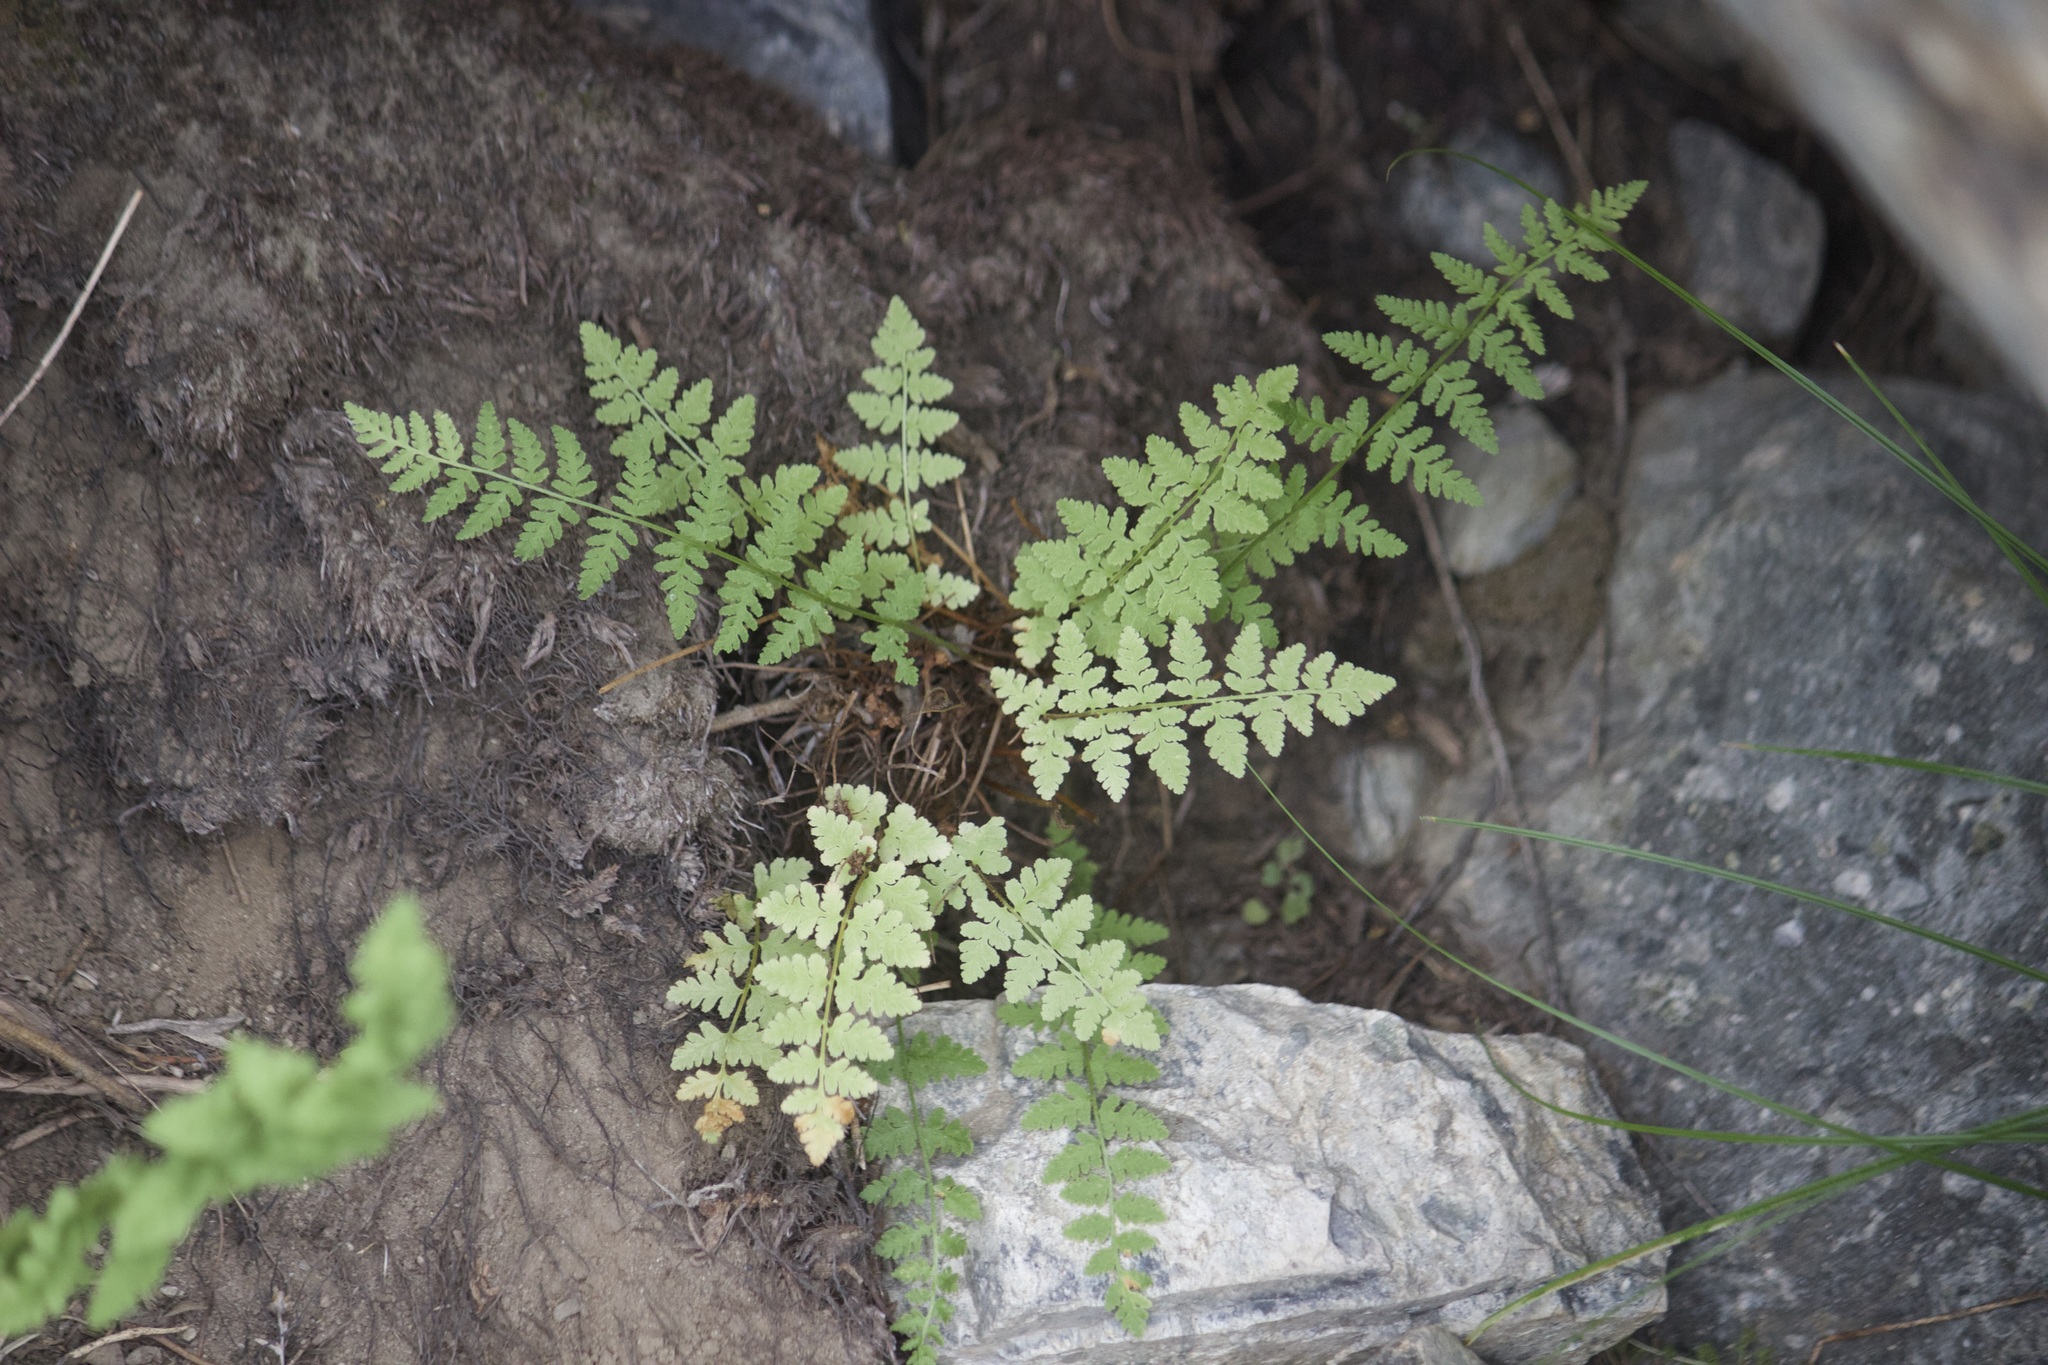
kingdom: Plantae
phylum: Tracheophyta
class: Polypodiopsida
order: Polypodiales
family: Cystopteridaceae
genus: Cystopteris
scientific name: Cystopteris fragilis
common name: Brittle bladder fern
